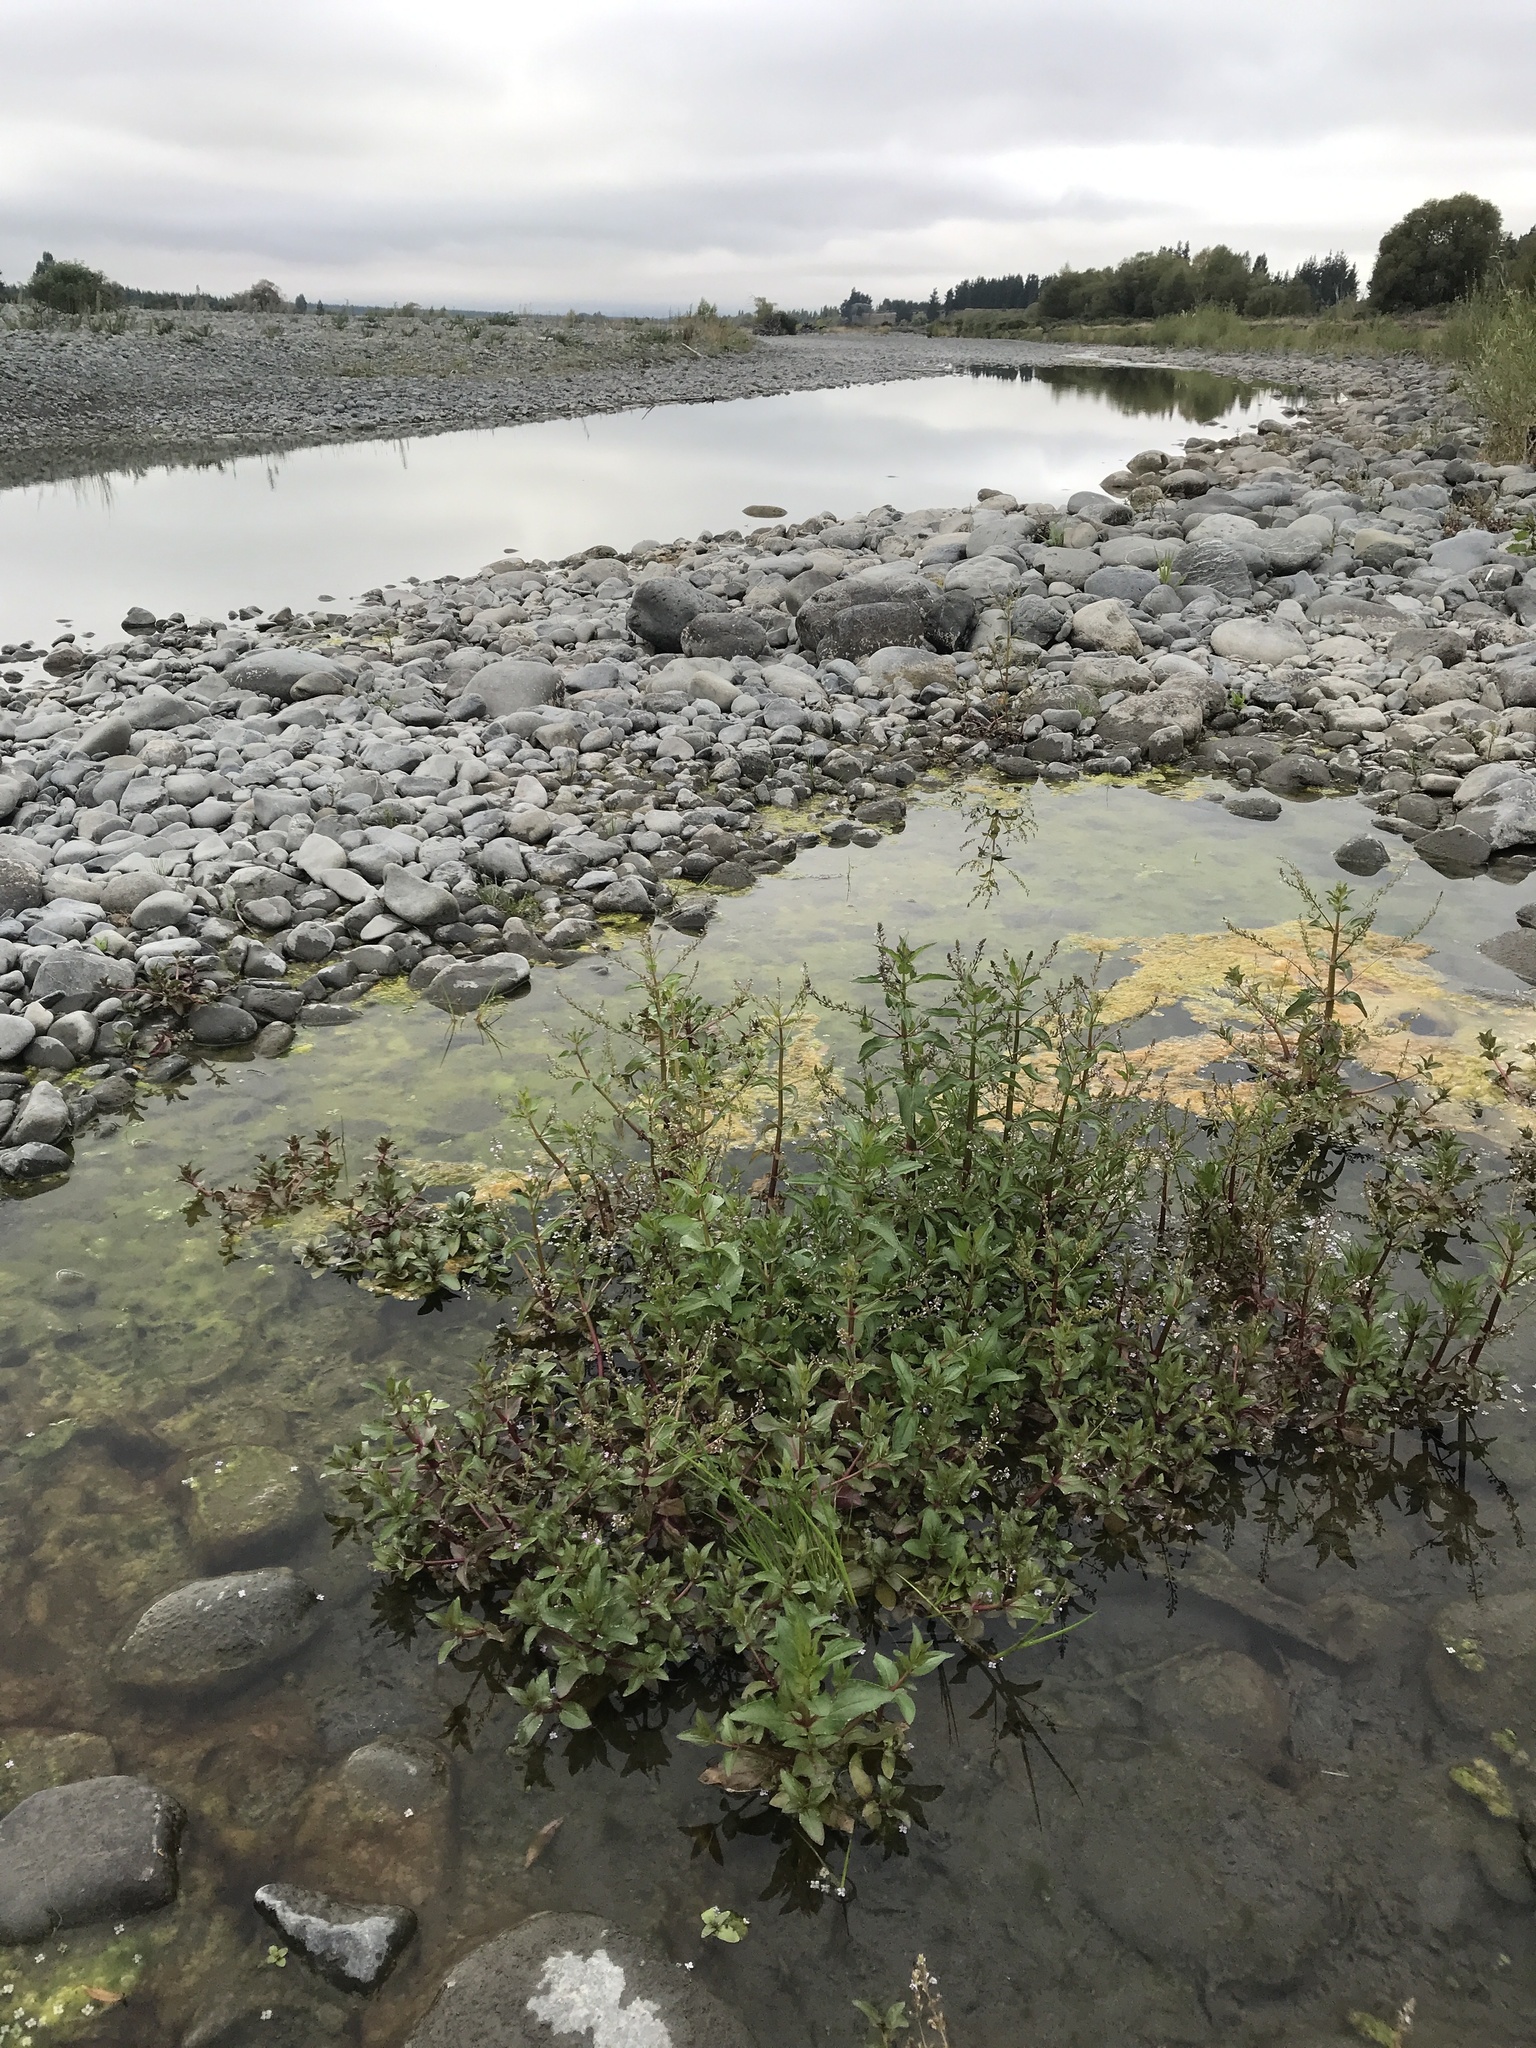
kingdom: Plantae
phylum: Tracheophyta
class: Magnoliopsida
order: Lamiales
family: Plantaginaceae
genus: Veronica
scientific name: Veronica anagallis-aquatica
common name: Water speedwell
